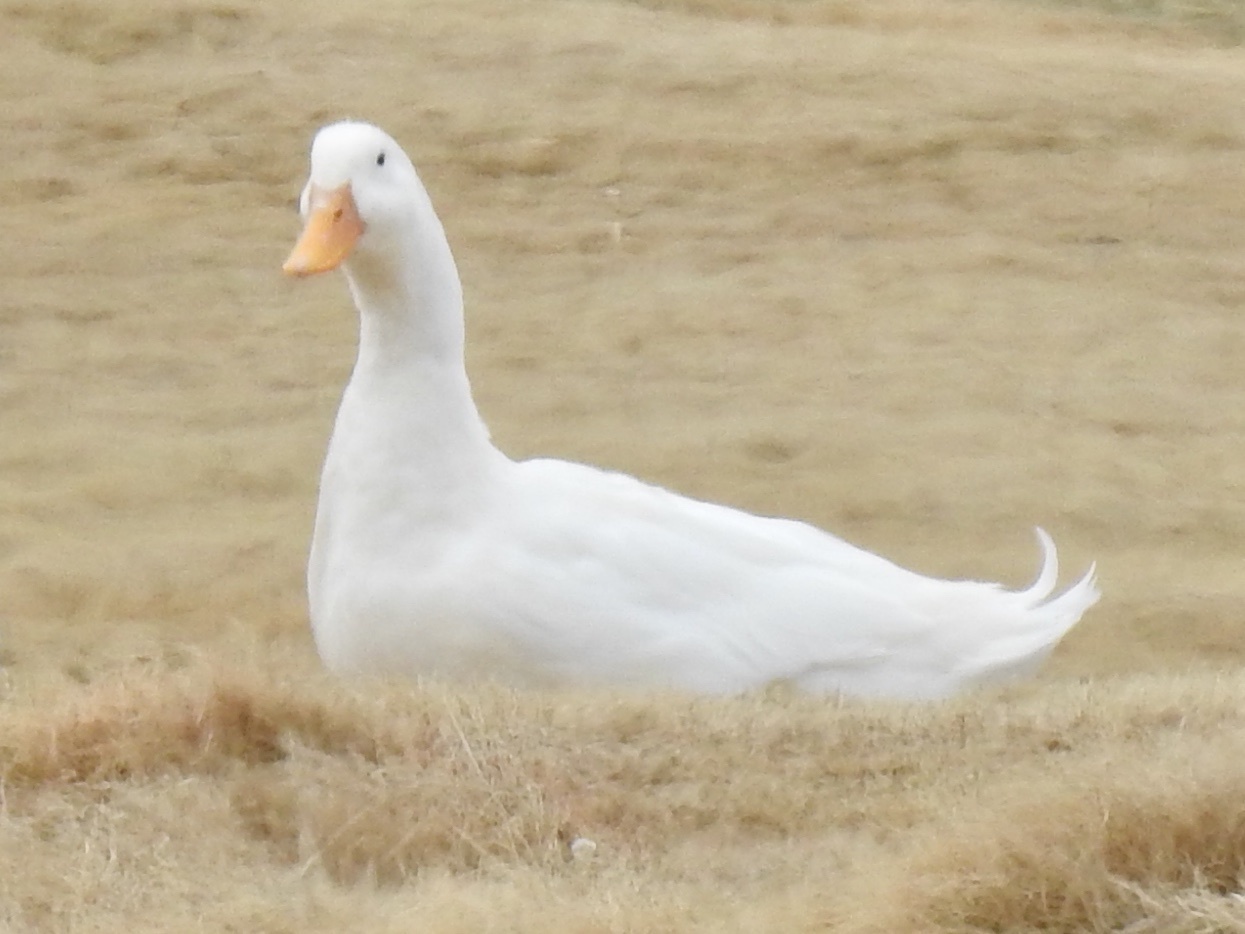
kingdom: Animalia
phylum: Chordata
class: Aves
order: Anseriformes
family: Anatidae
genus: Anas
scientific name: Anas platyrhynchos
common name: Mallard
